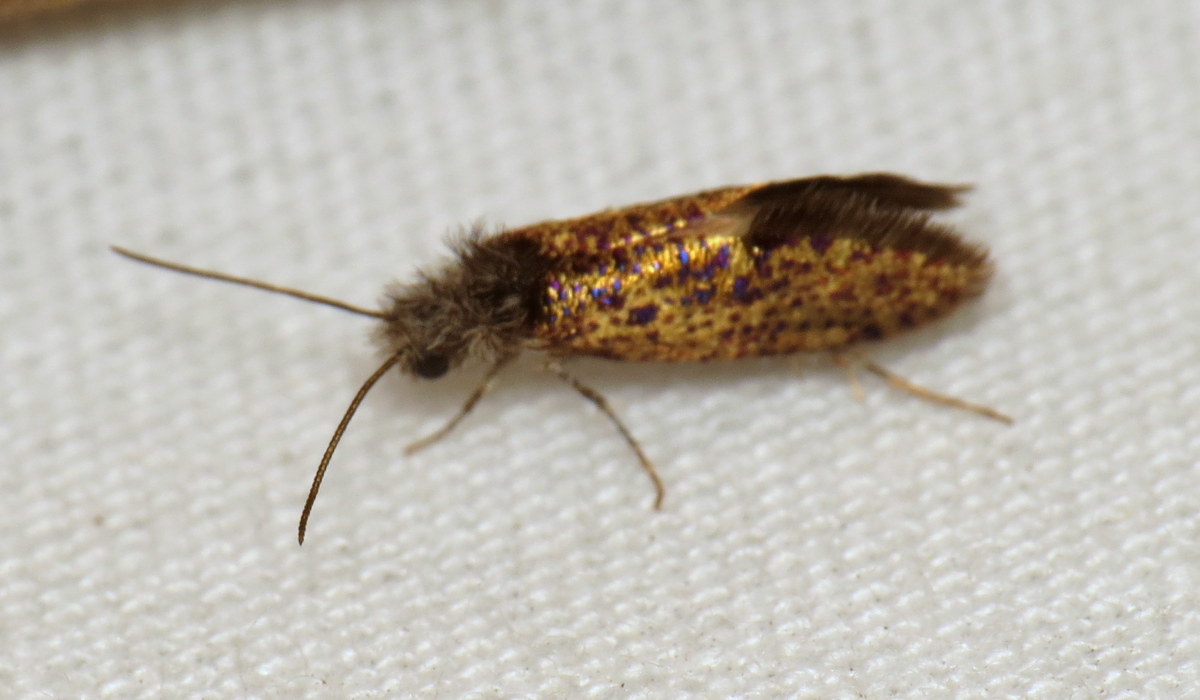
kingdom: Animalia
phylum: Arthropoda
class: Insecta
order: Lepidoptera
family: Eriocraniidae
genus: Dyseriocrania
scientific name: Dyseriocrania griseocapitella
